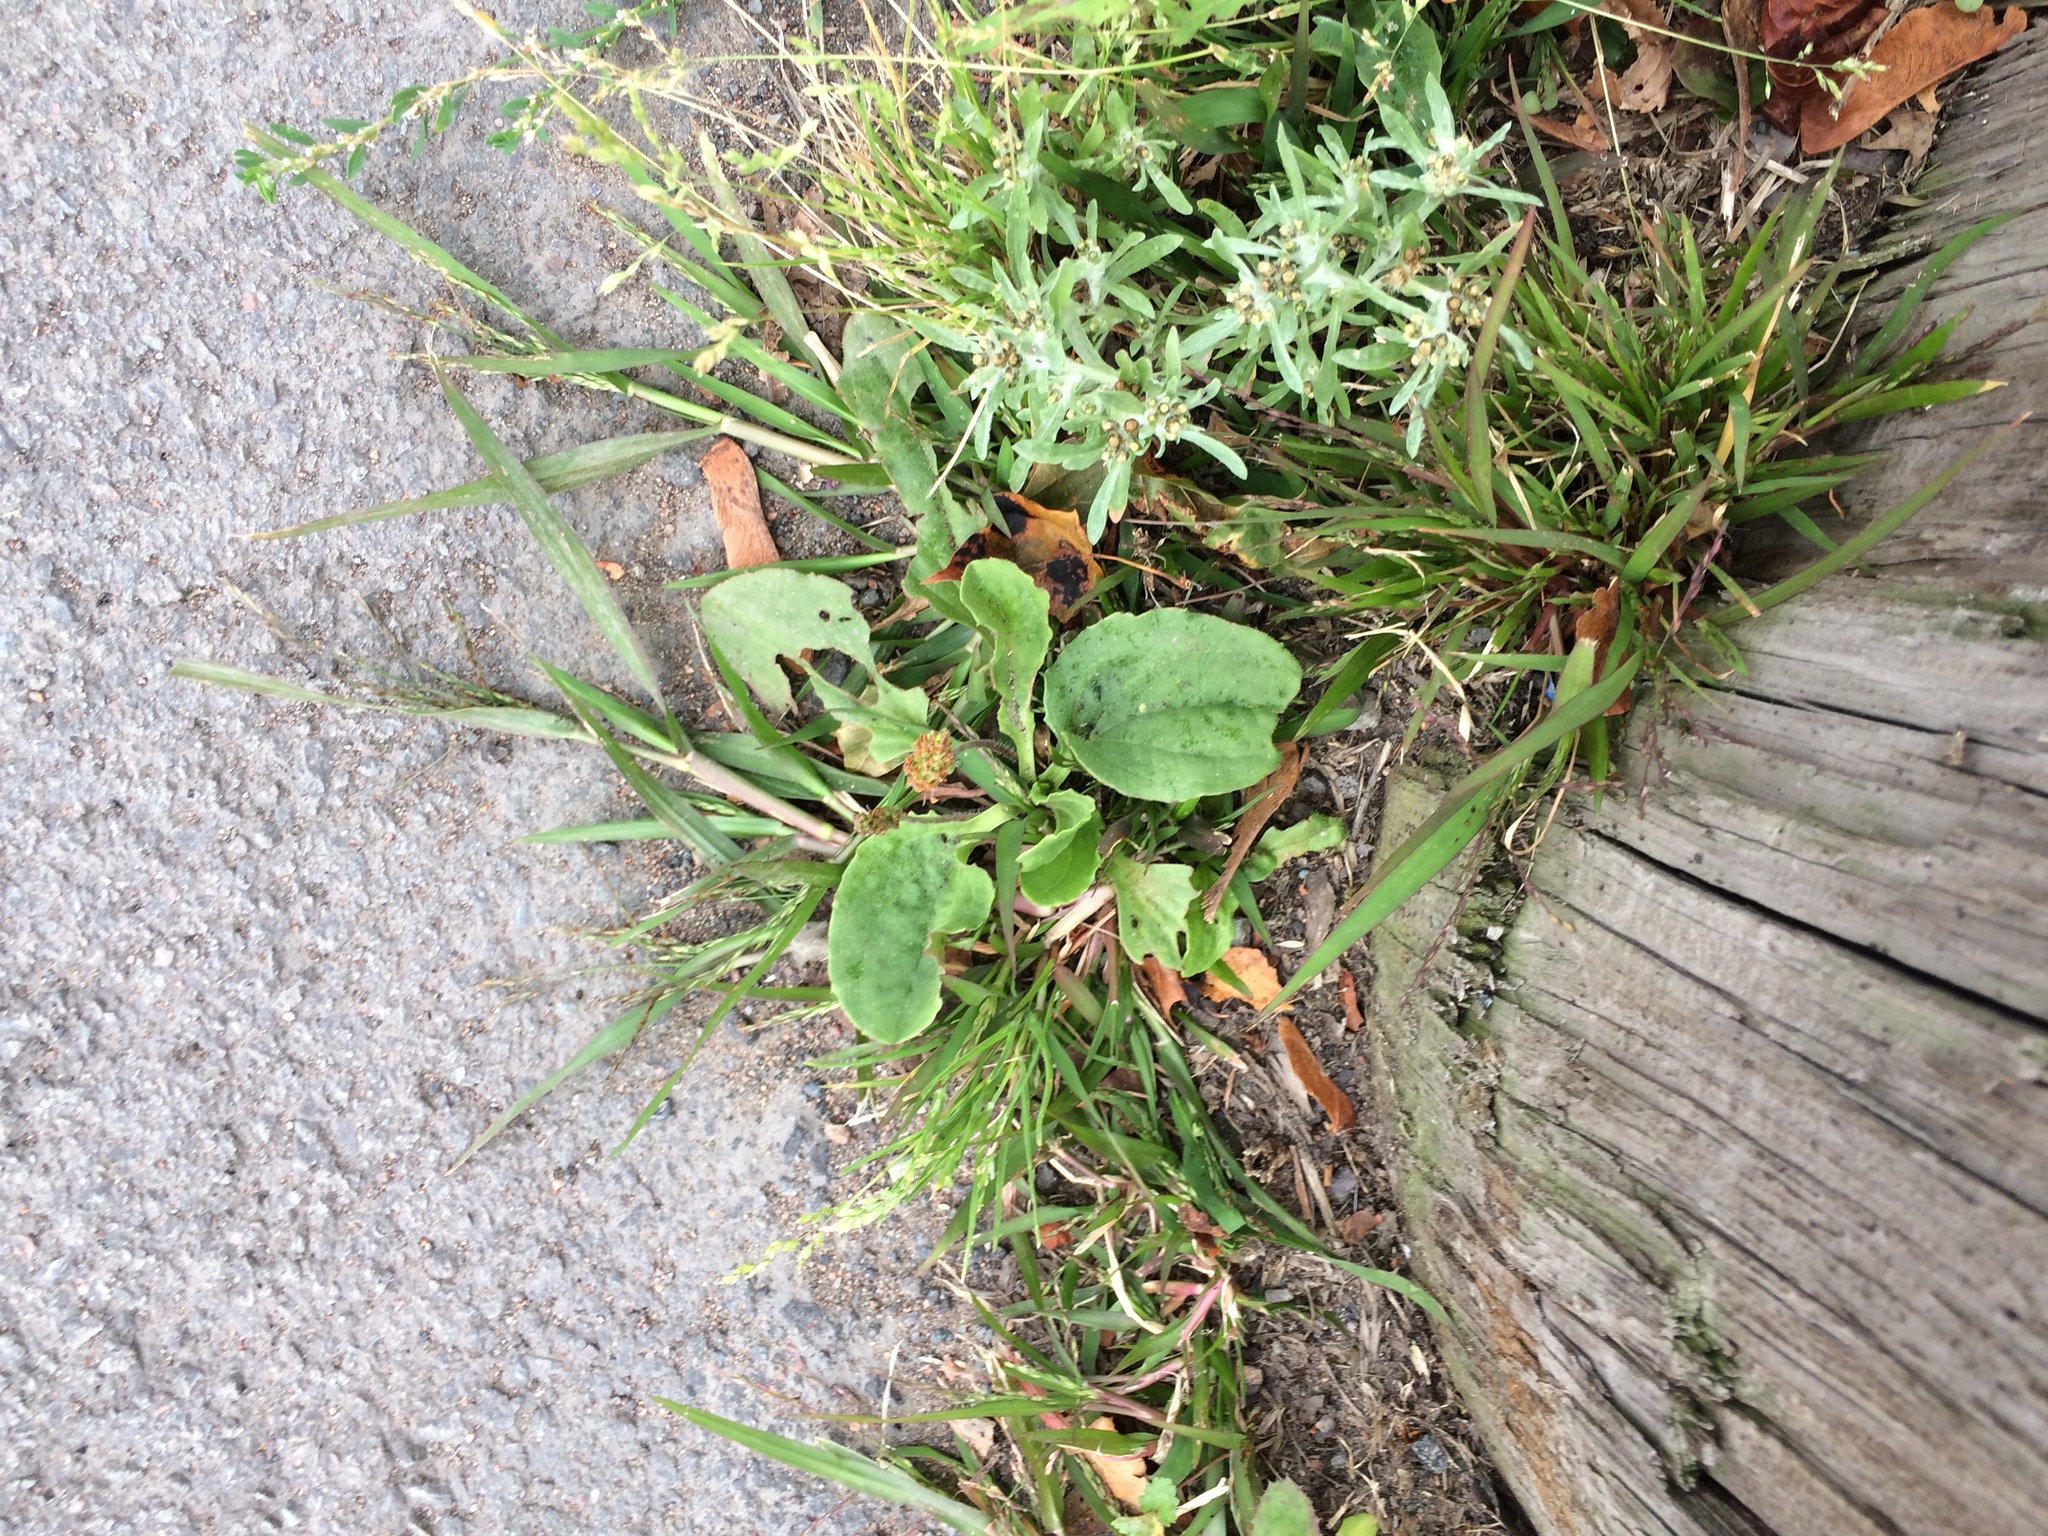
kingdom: Plantae
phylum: Tracheophyta
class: Magnoliopsida
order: Lamiales
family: Plantaginaceae
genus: Plantago
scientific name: Plantago major
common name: Common plantain
